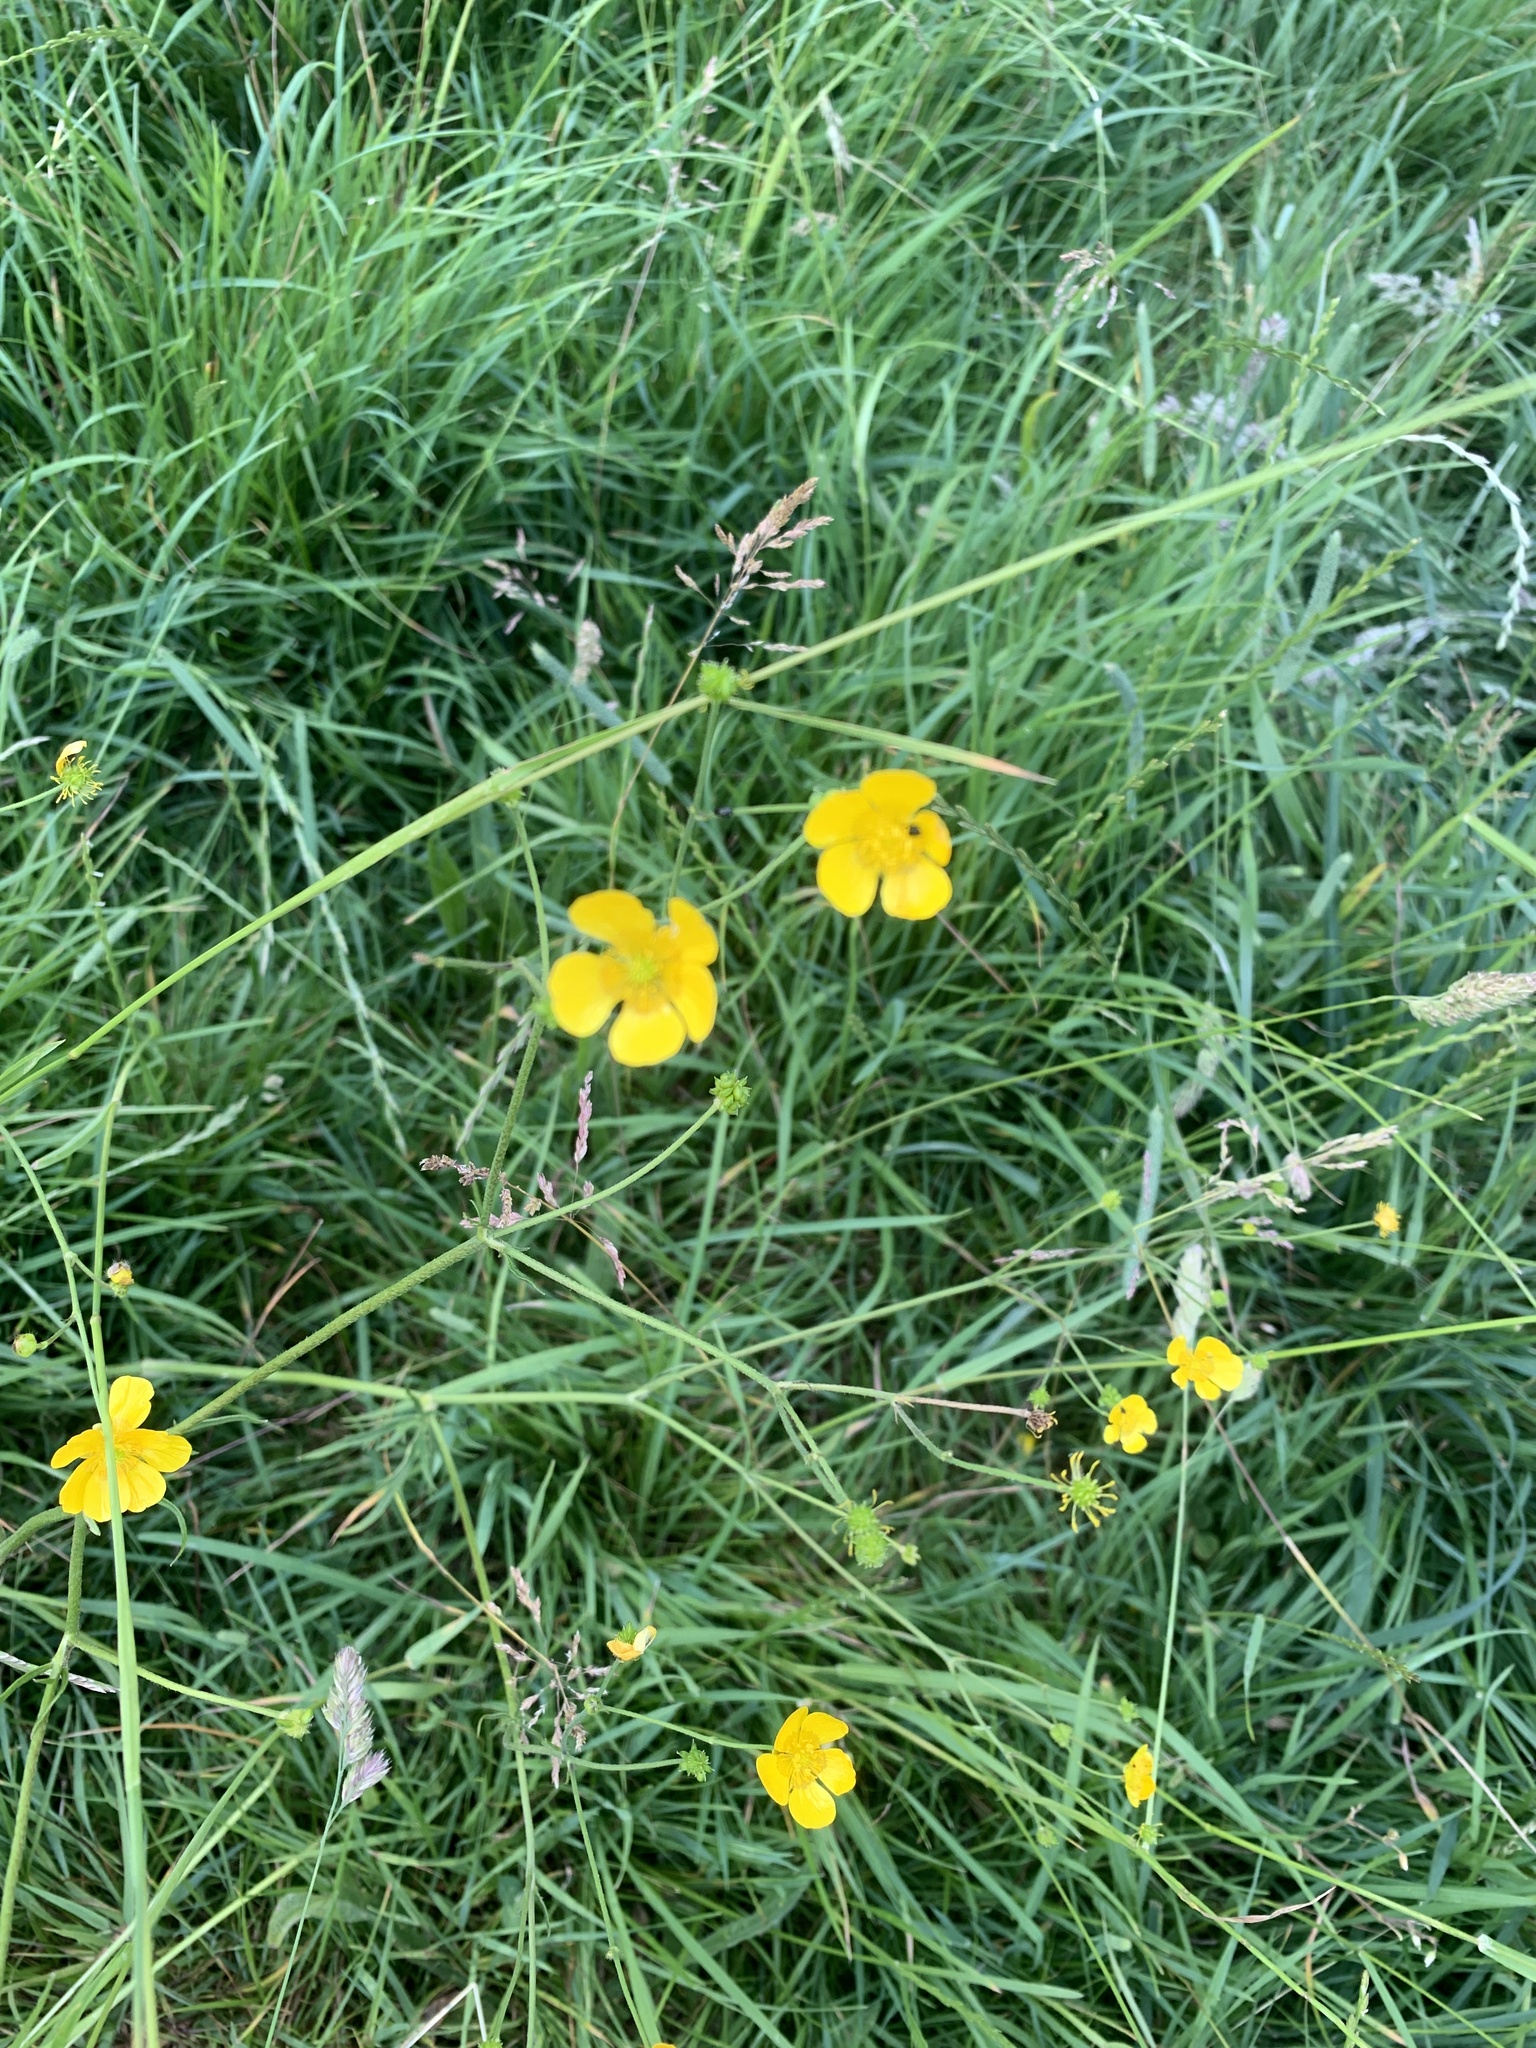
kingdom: Plantae
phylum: Tracheophyta
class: Magnoliopsida
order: Ranunculales
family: Ranunculaceae
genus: Ranunculus
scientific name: Ranunculus acris
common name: Meadow buttercup
